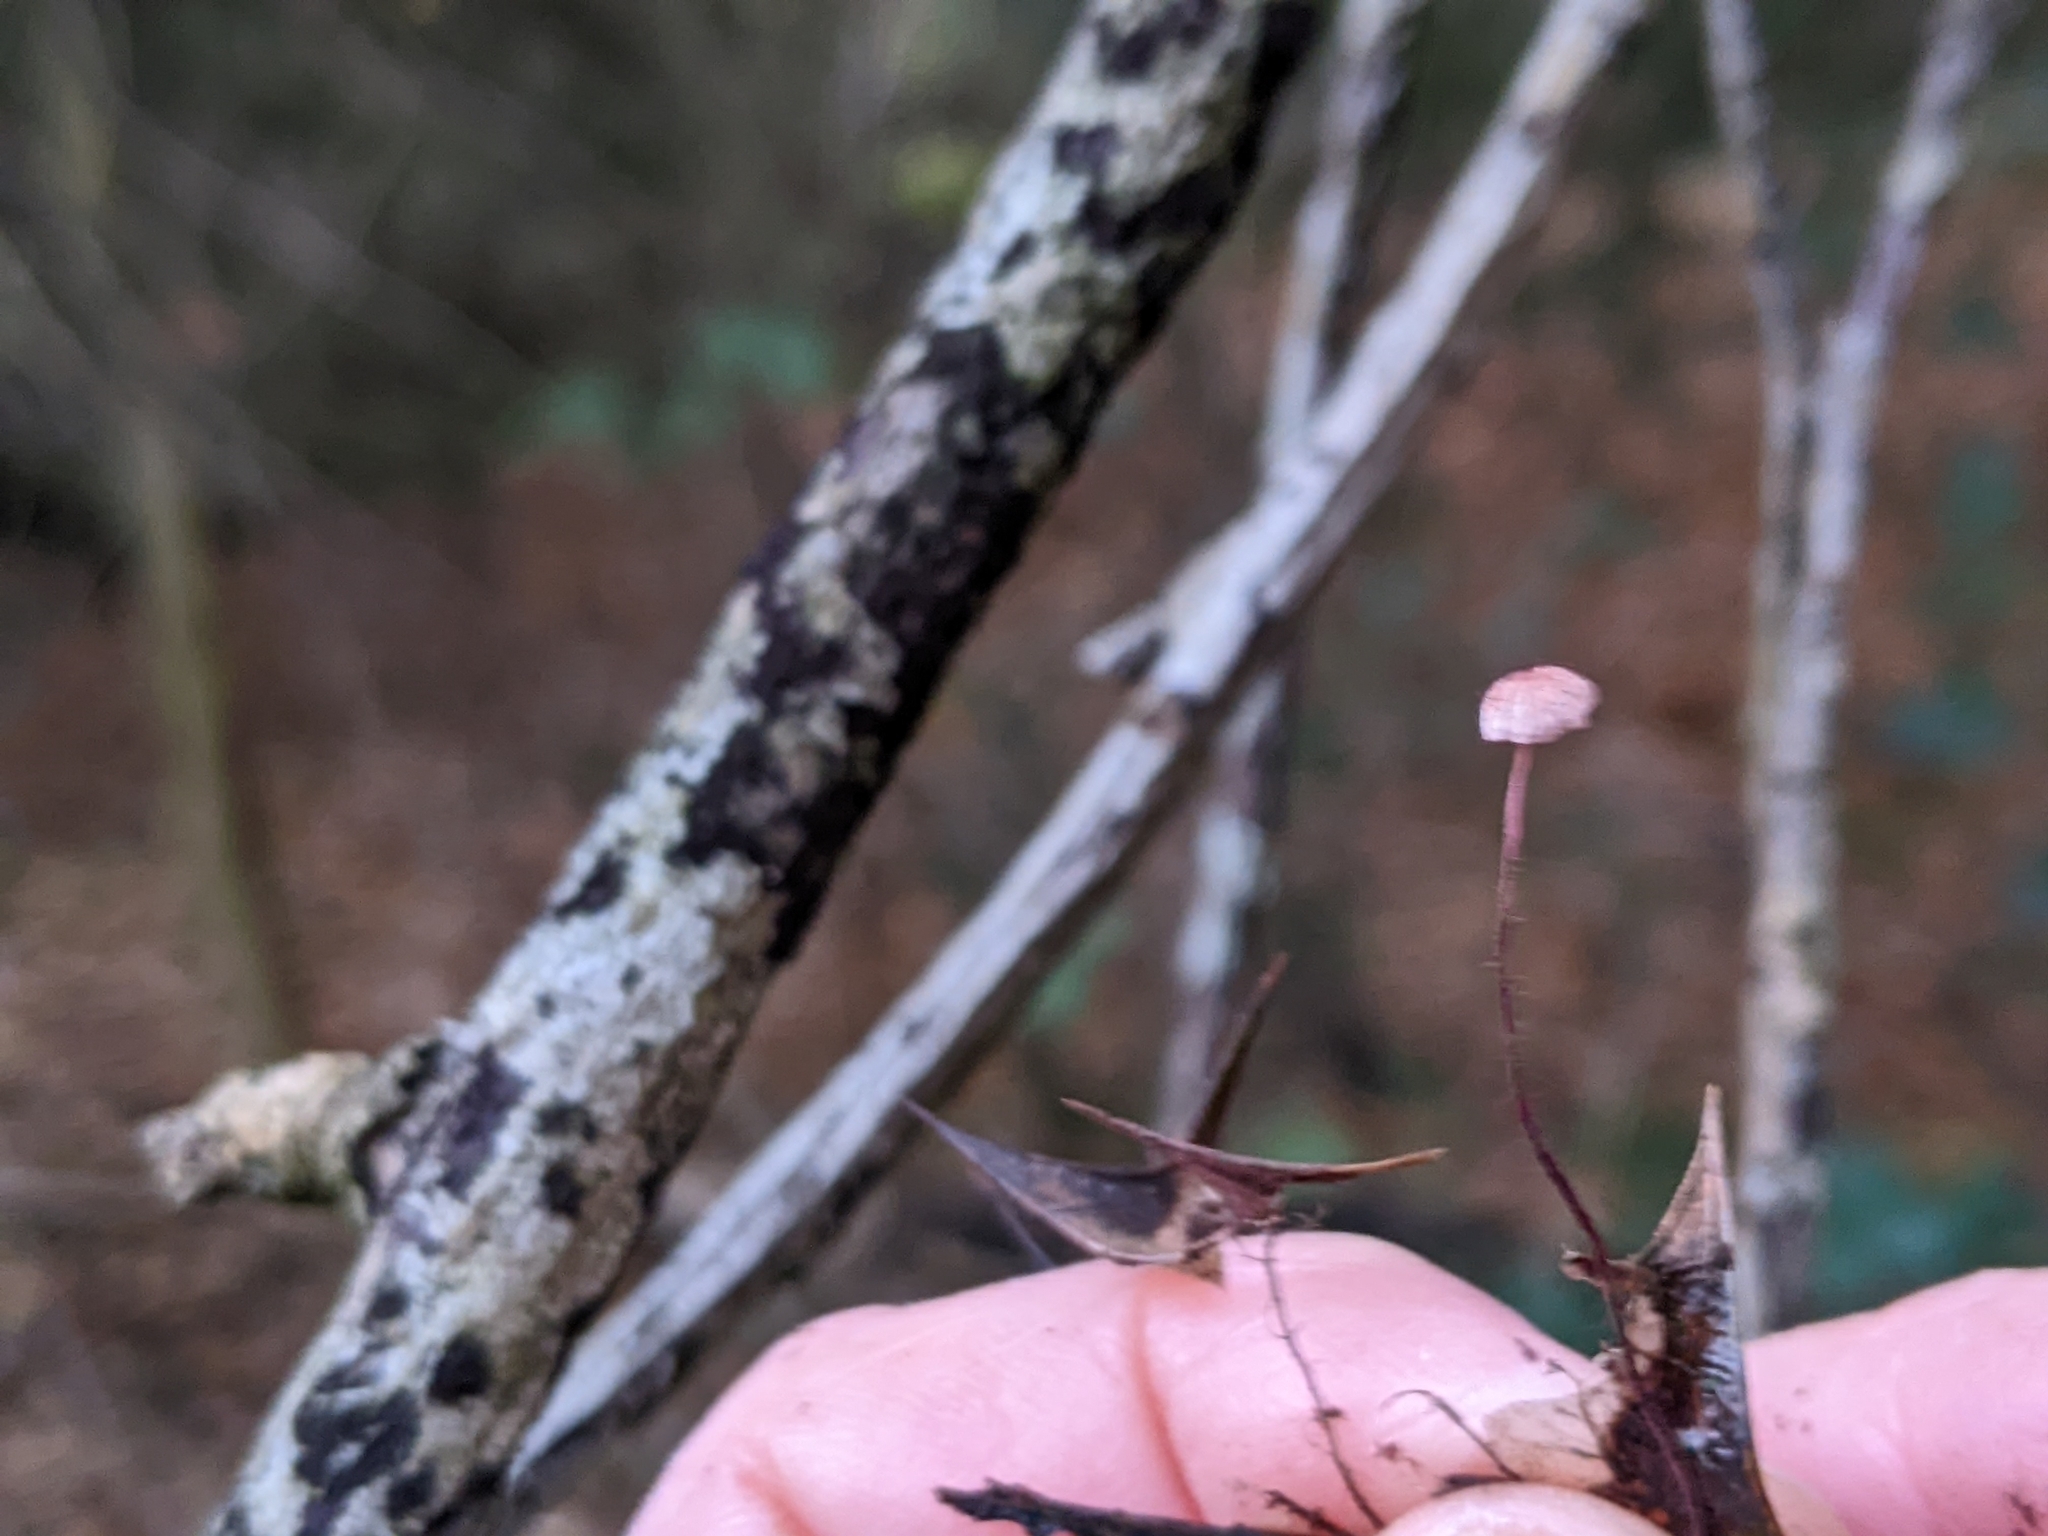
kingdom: Fungi
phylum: Basidiomycota
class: Agaricomycetes
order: Agaricales
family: Marasmiaceae
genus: Marasmius
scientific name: Marasmius hudsonii
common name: Holly parachute
